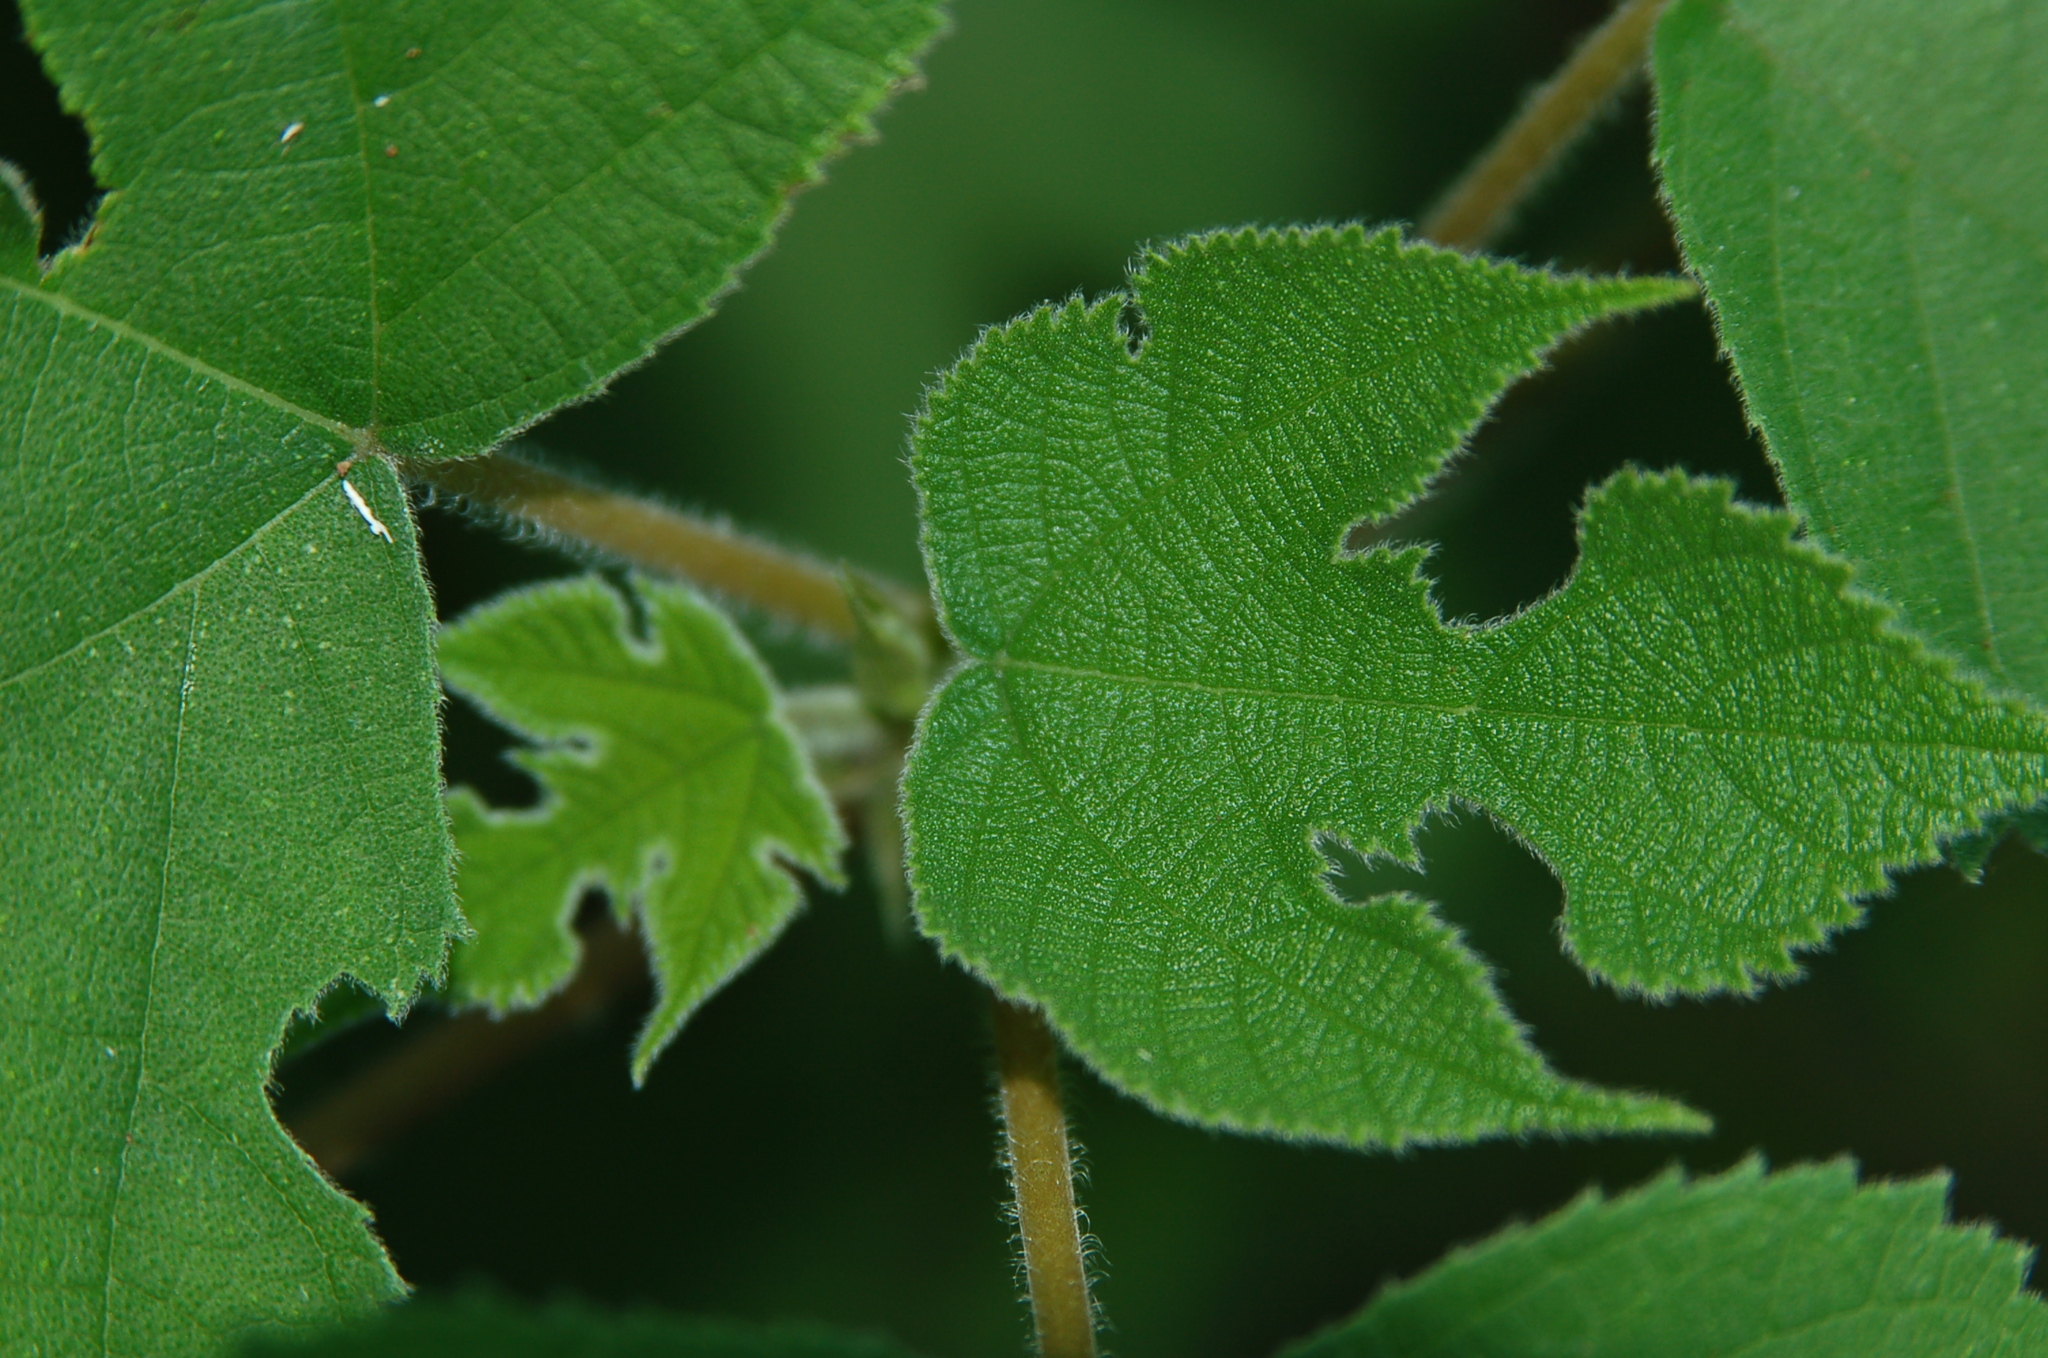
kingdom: Plantae
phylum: Tracheophyta
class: Magnoliopsida
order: Rosales
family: Moraceae
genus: Broussonetia
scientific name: Broussonetia papyrifera
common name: Paper mulberry
